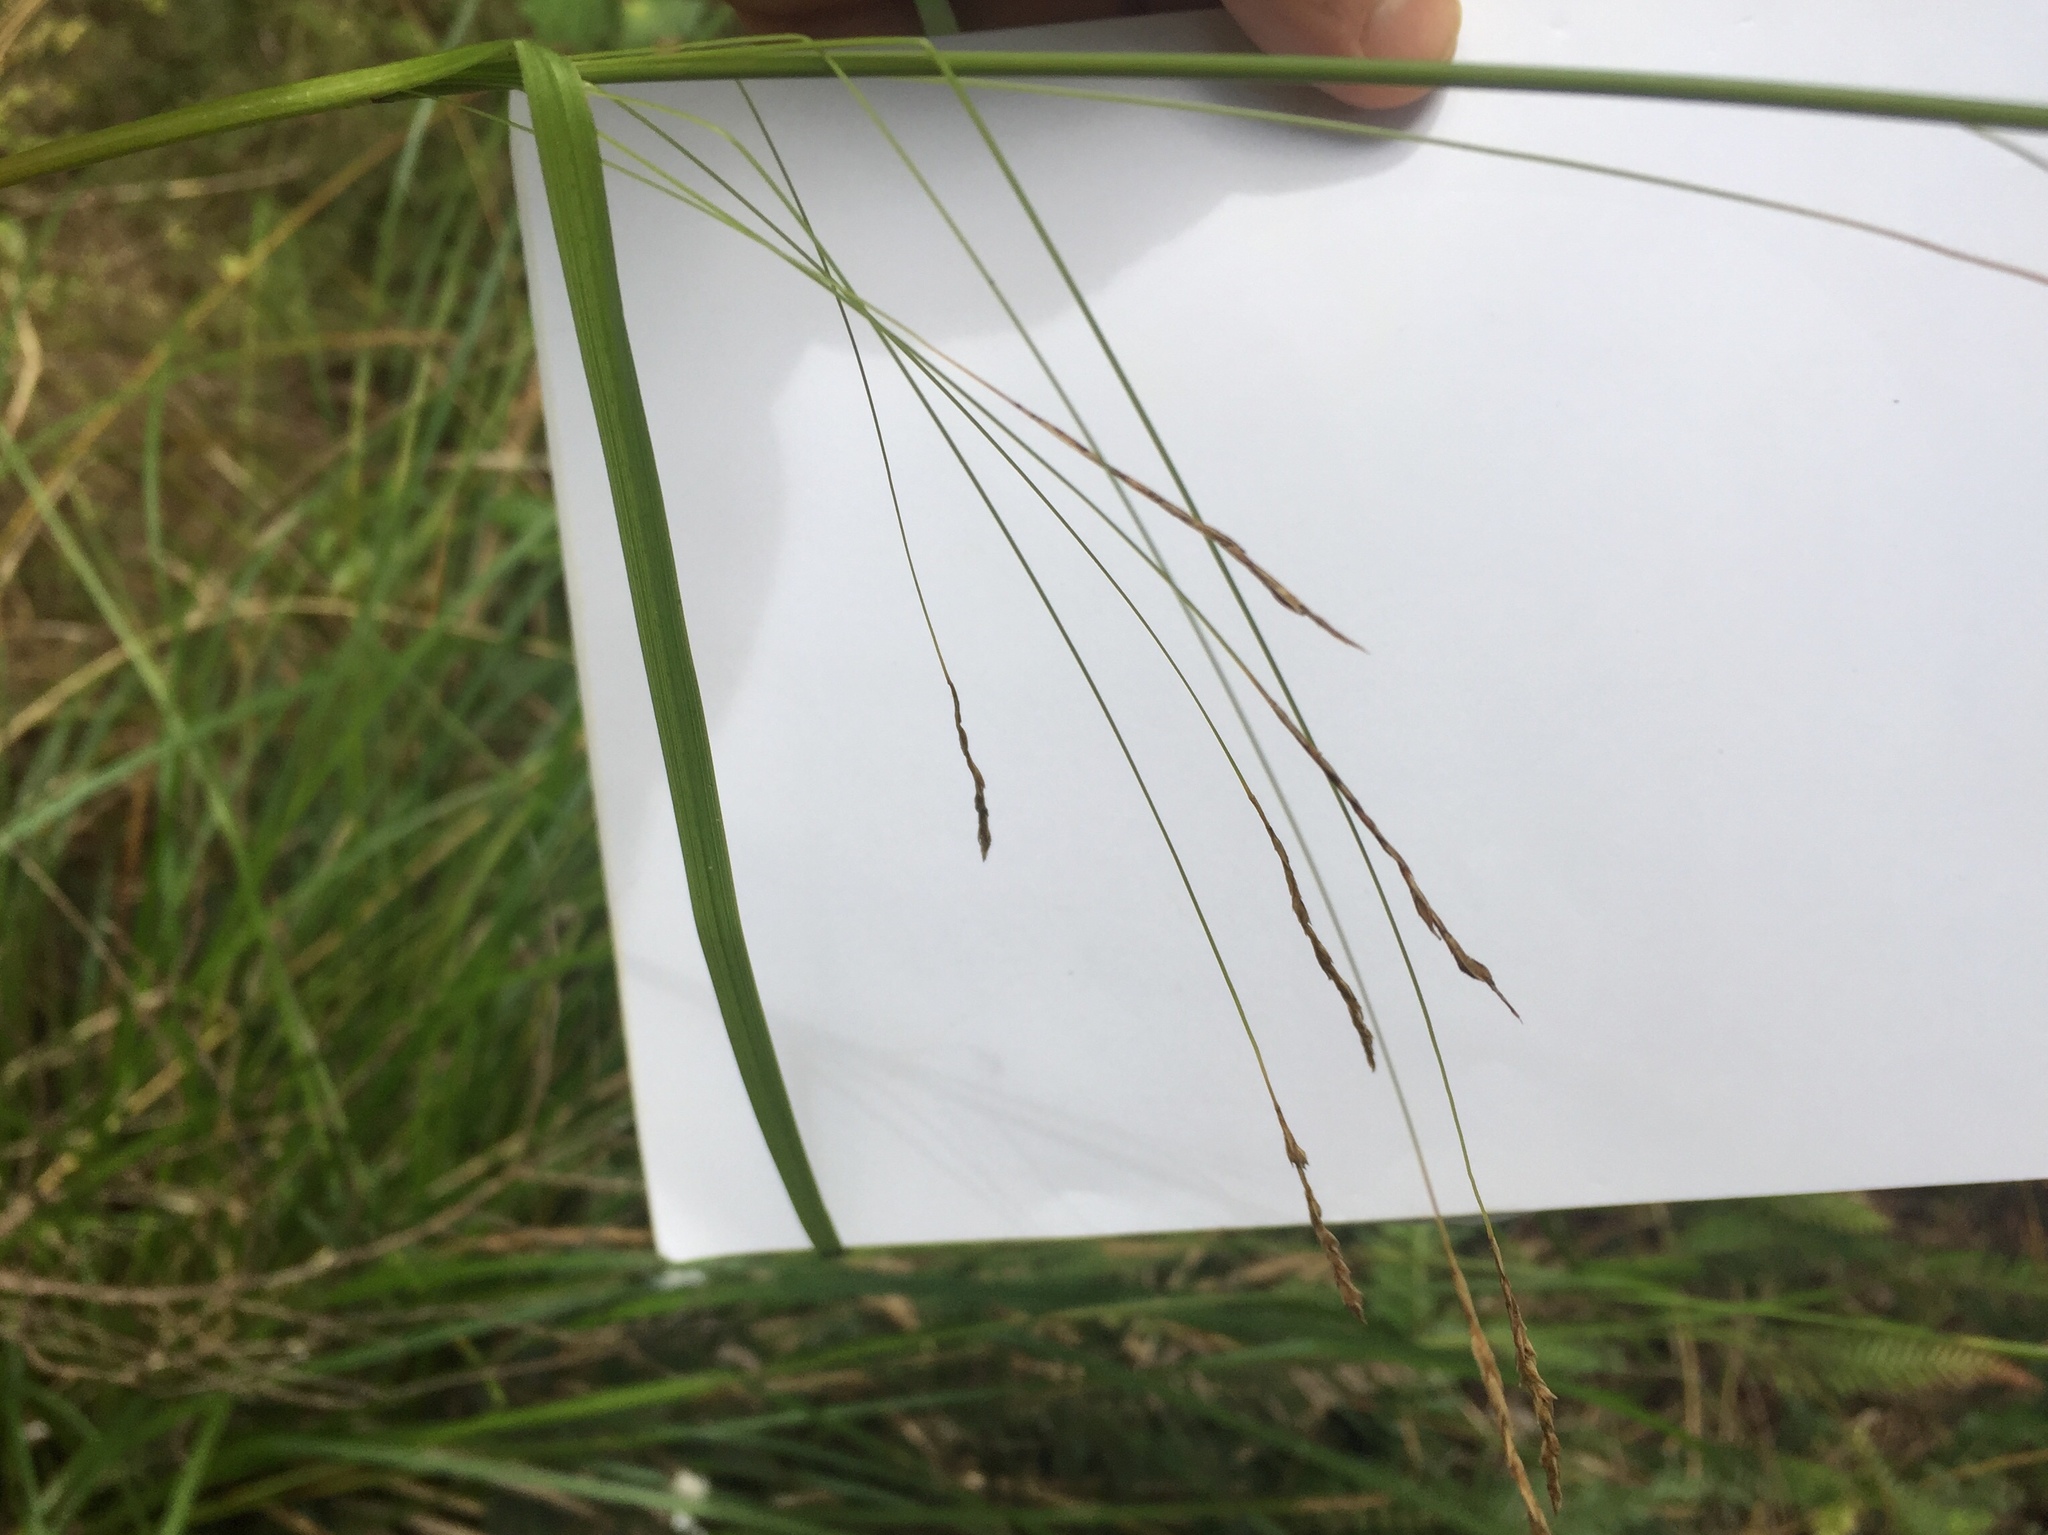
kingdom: Plantae
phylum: Tracheophyta
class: Liliopsida
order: Poales
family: Cyperaceae
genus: Carex
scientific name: Carex longebrachiata
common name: Drooping sedge
